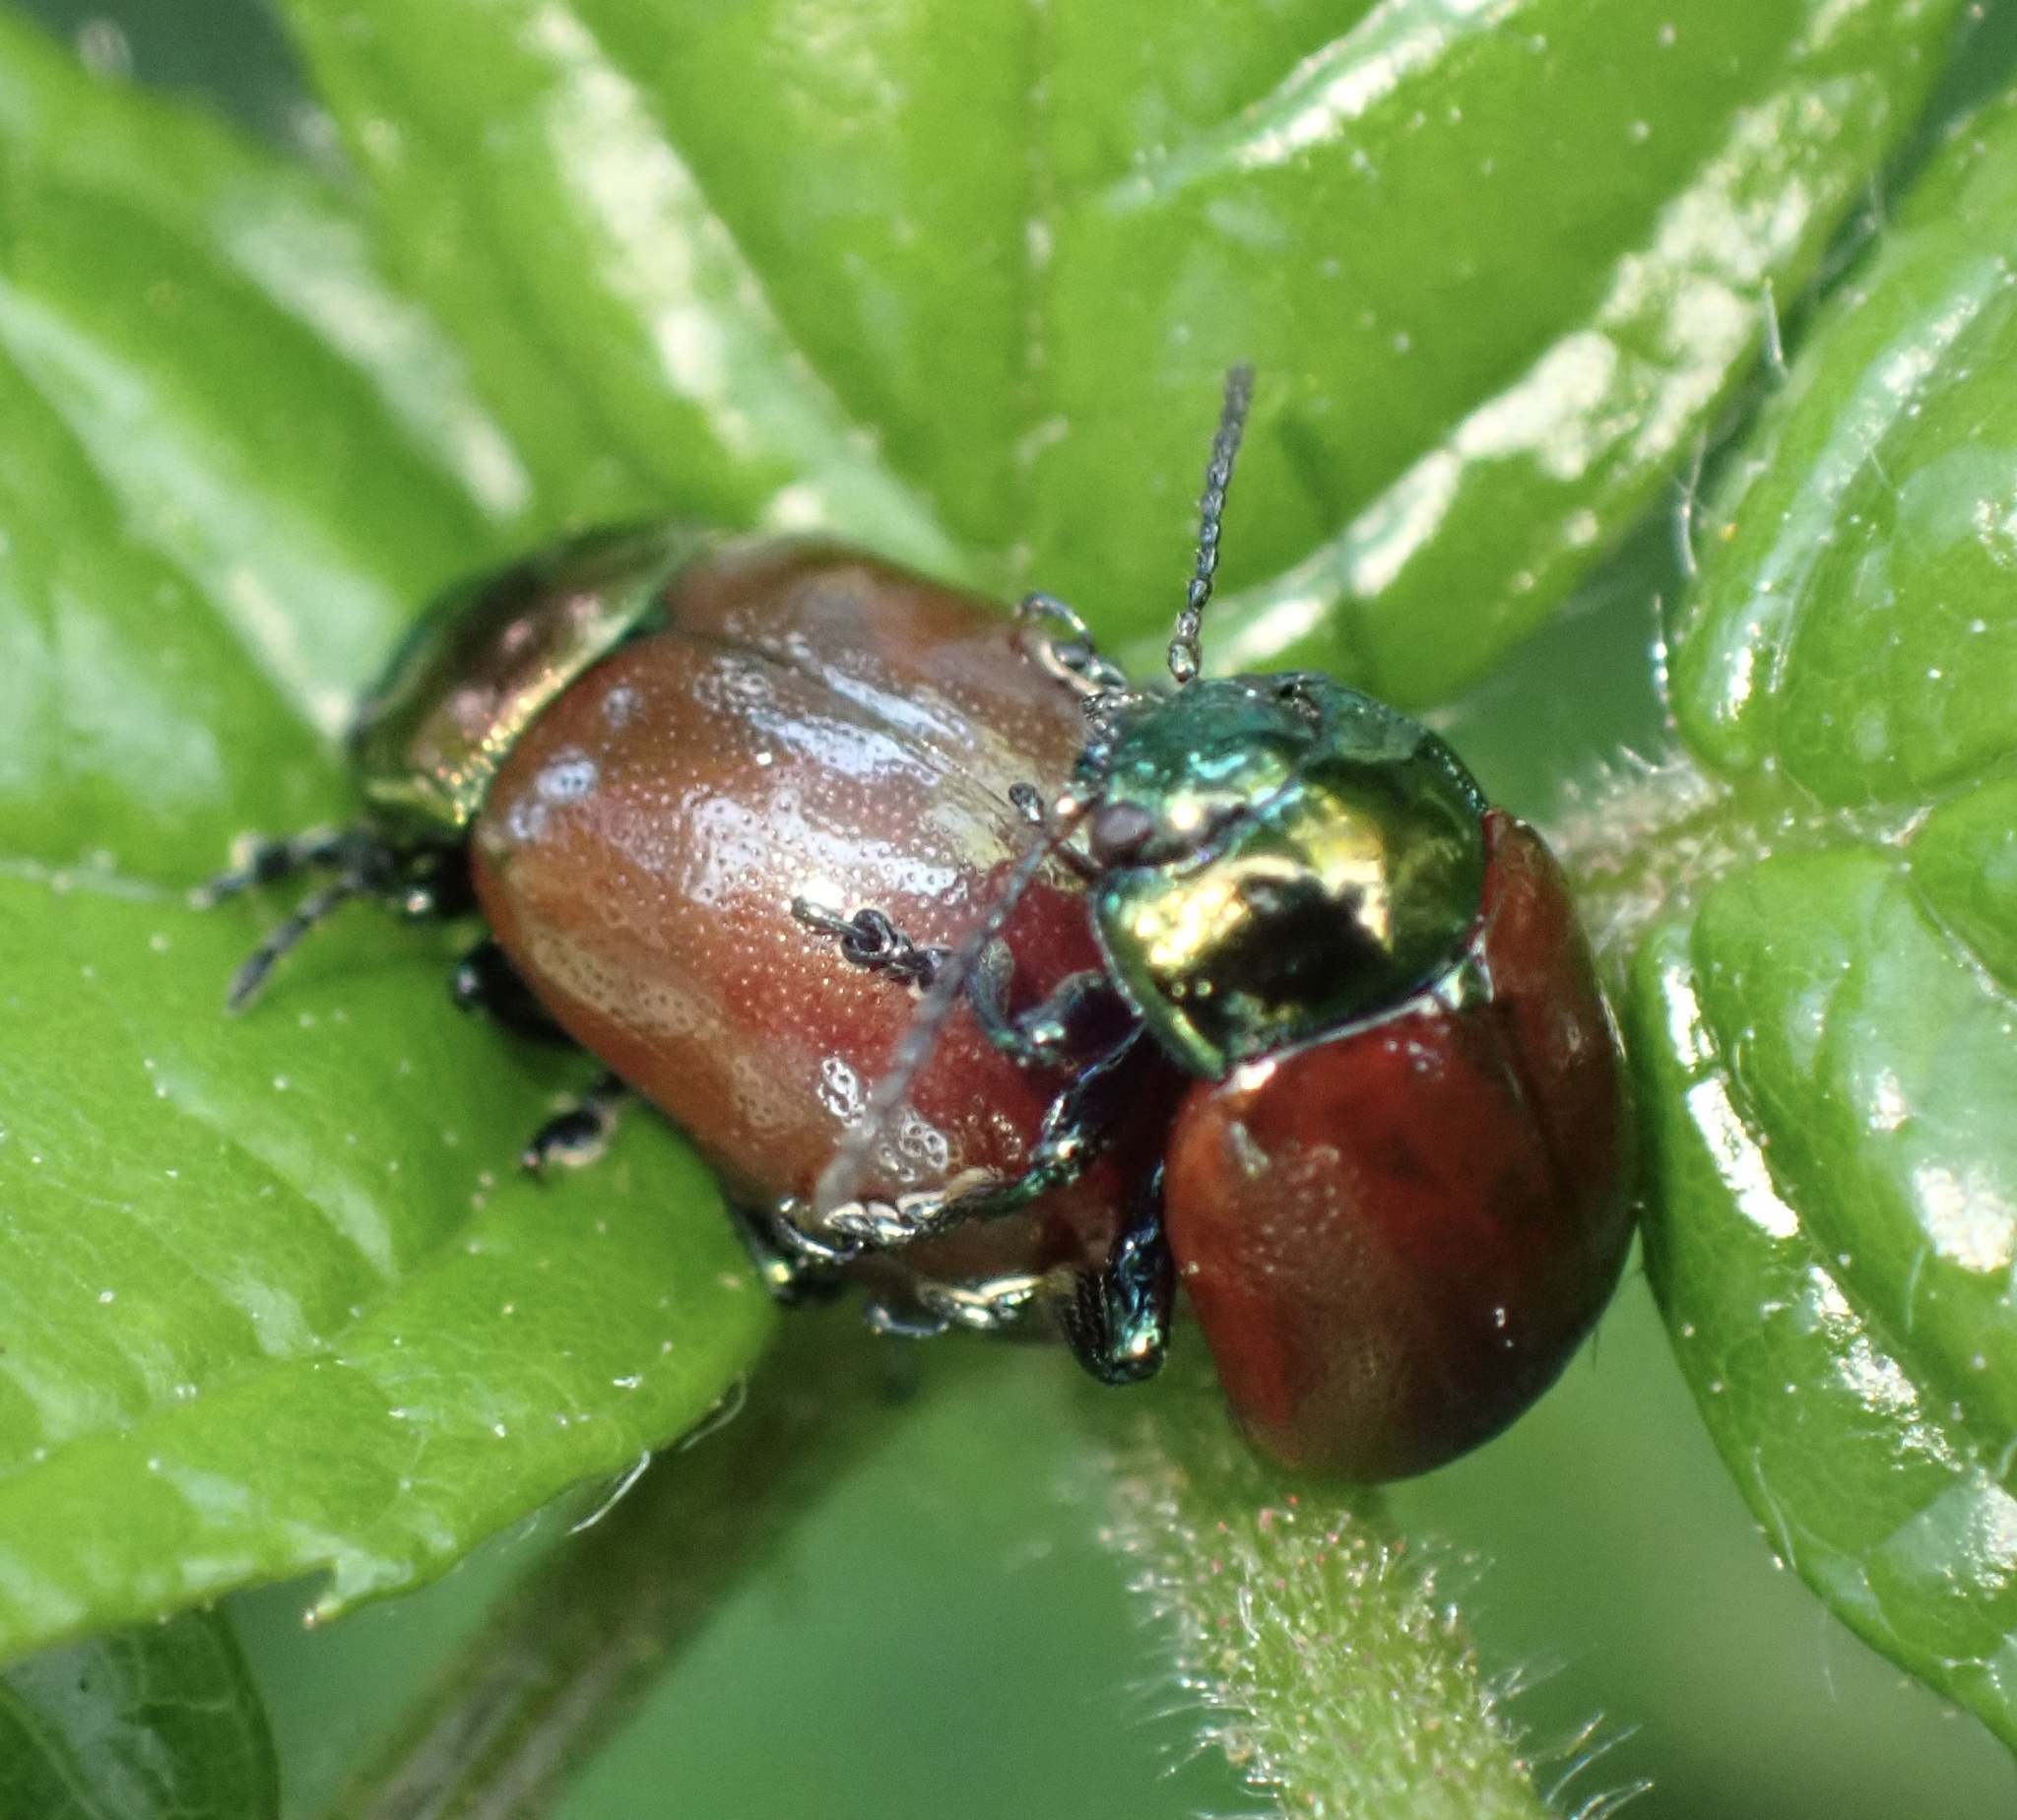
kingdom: Animalia
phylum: Arthropoda
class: Insecta
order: Coleoptera
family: Chrysomelidae
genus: Chrysomela
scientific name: Chrysomela polita
